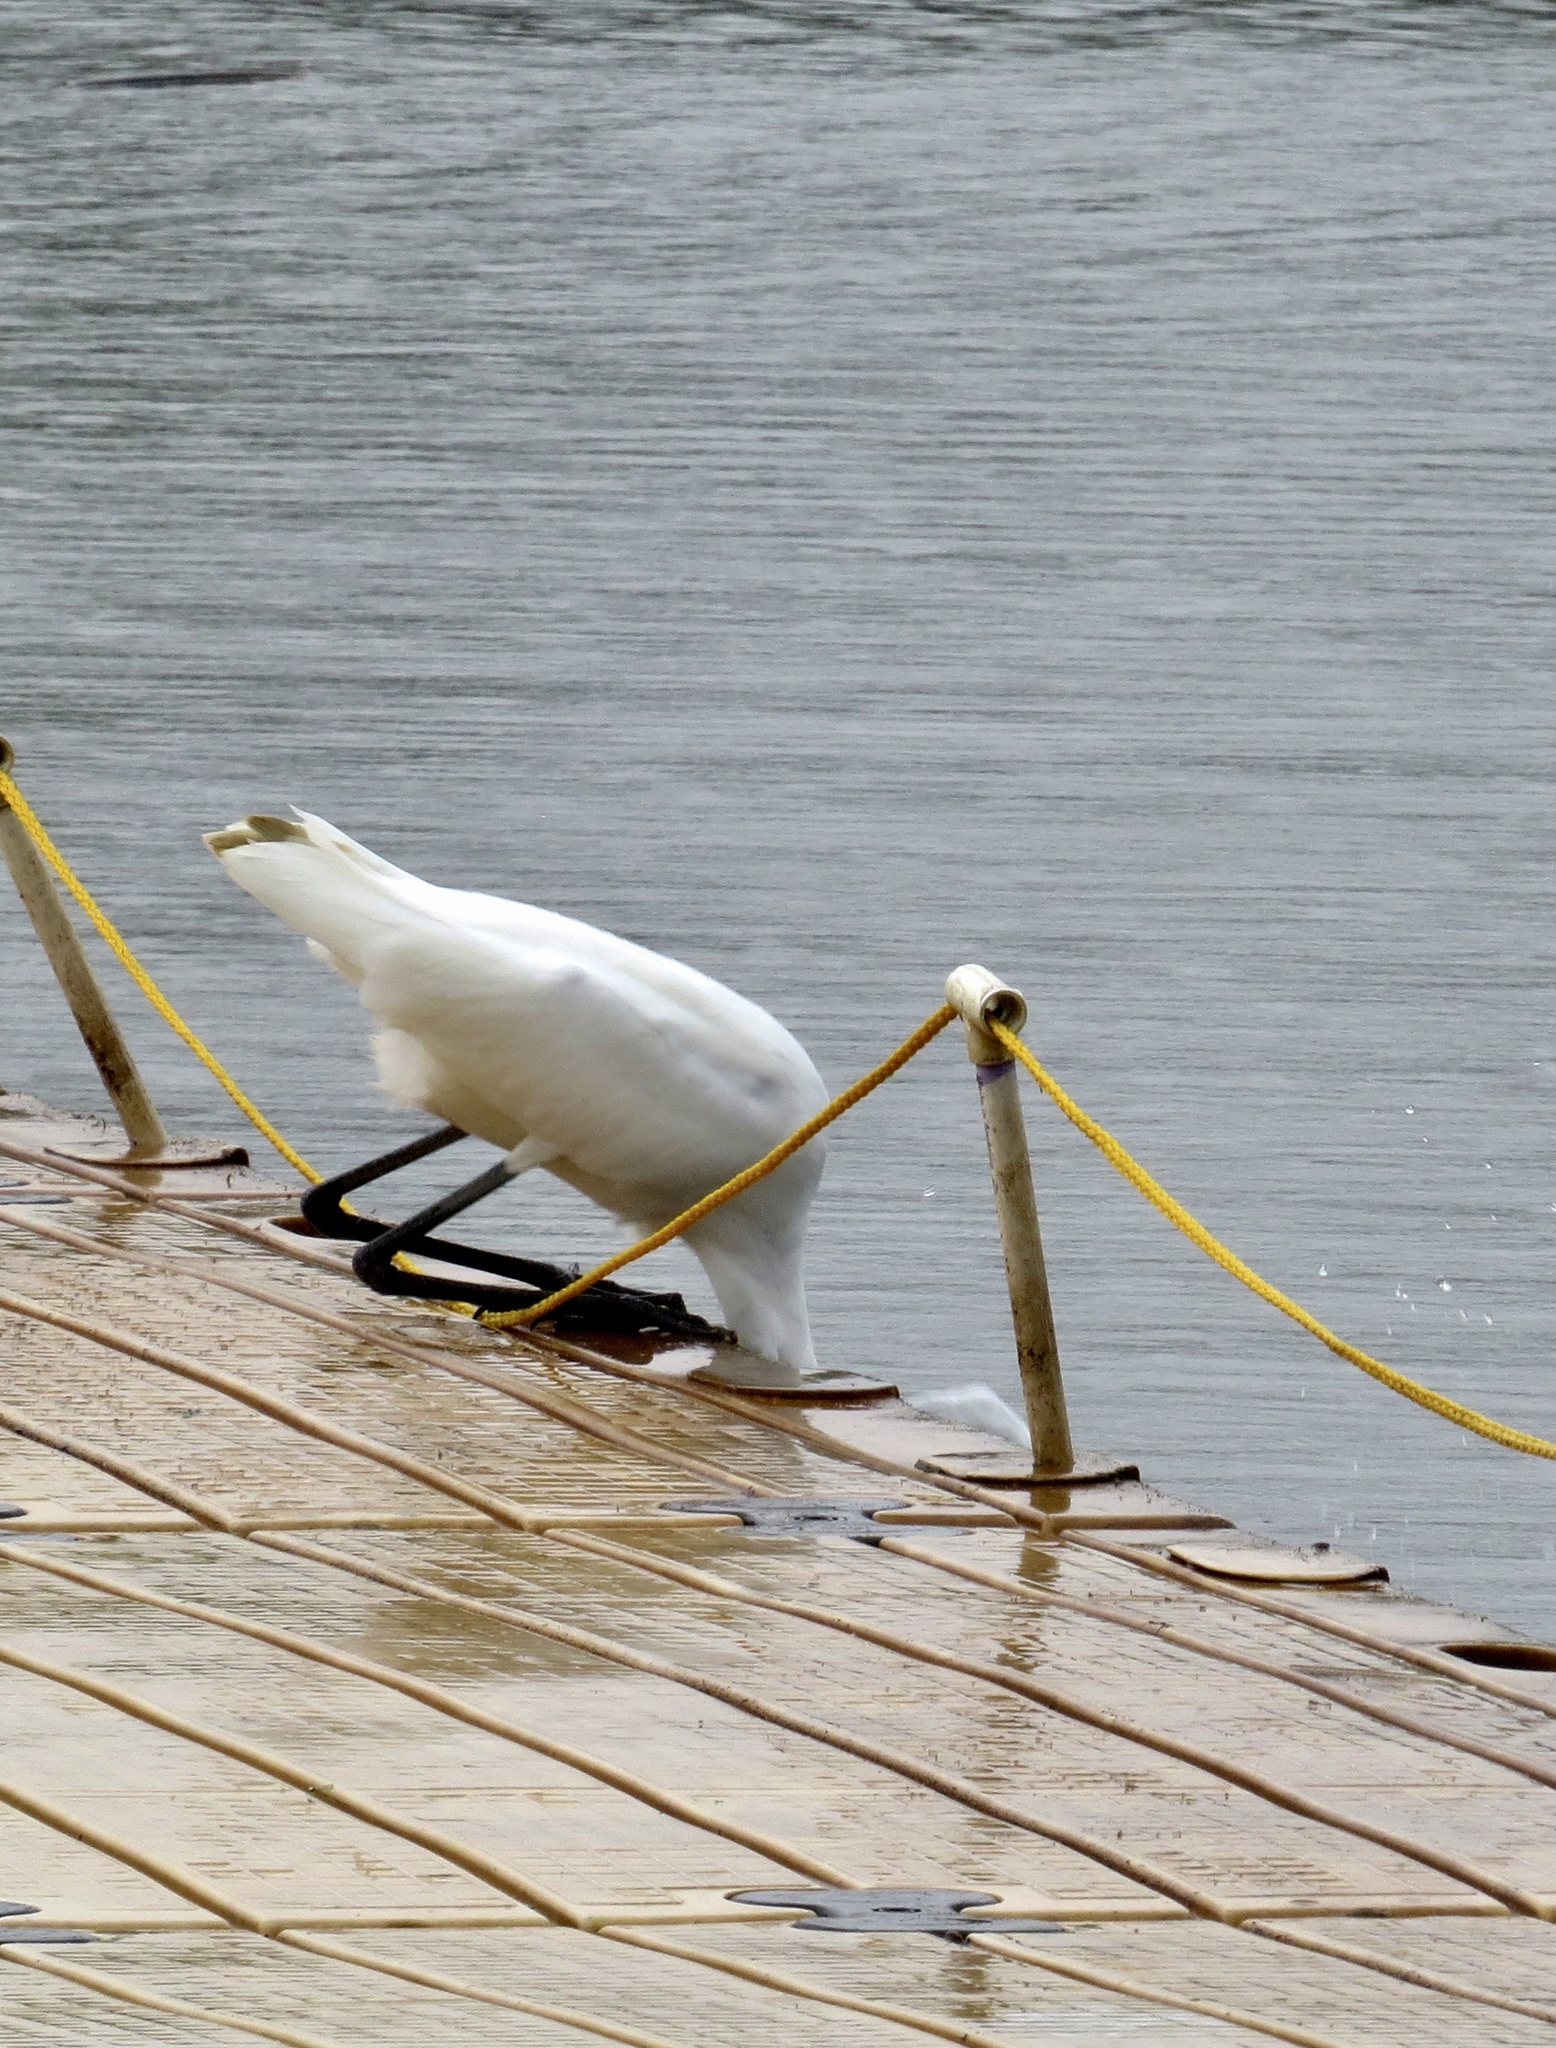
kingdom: Animalia
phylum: Chordata
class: Aves
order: Pelecaniformes
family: Ardeidae
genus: Ardea
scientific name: Ardea alba
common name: Great egret
